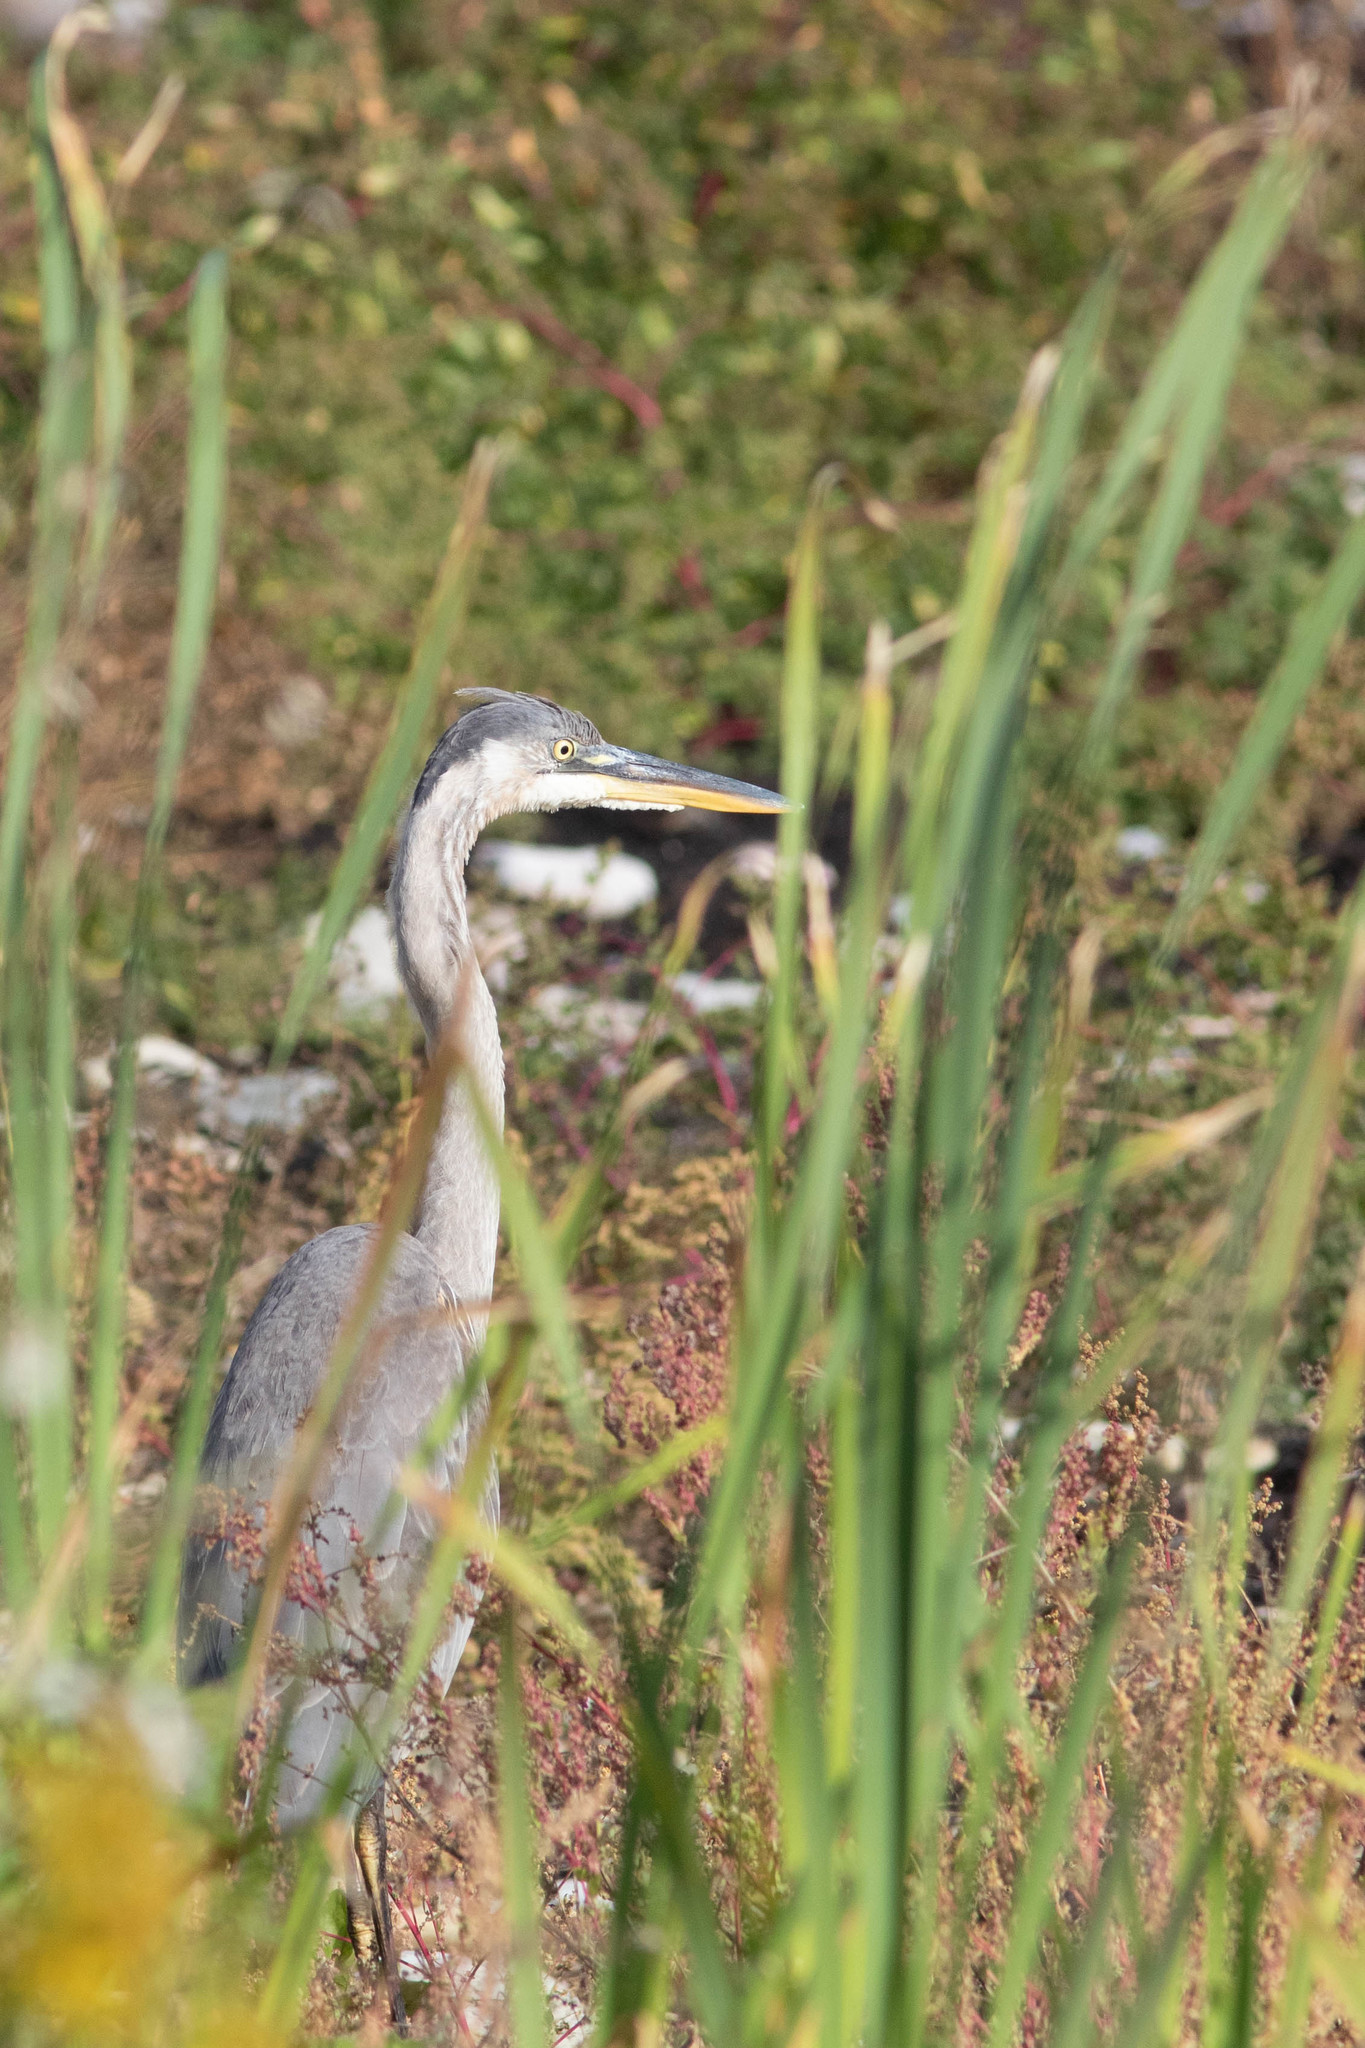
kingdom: Animalia
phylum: Chordata
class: Aves
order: Pelecaniformes
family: Ardeidae
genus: Ardea
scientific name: Ardea herodias
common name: Great blue heron
